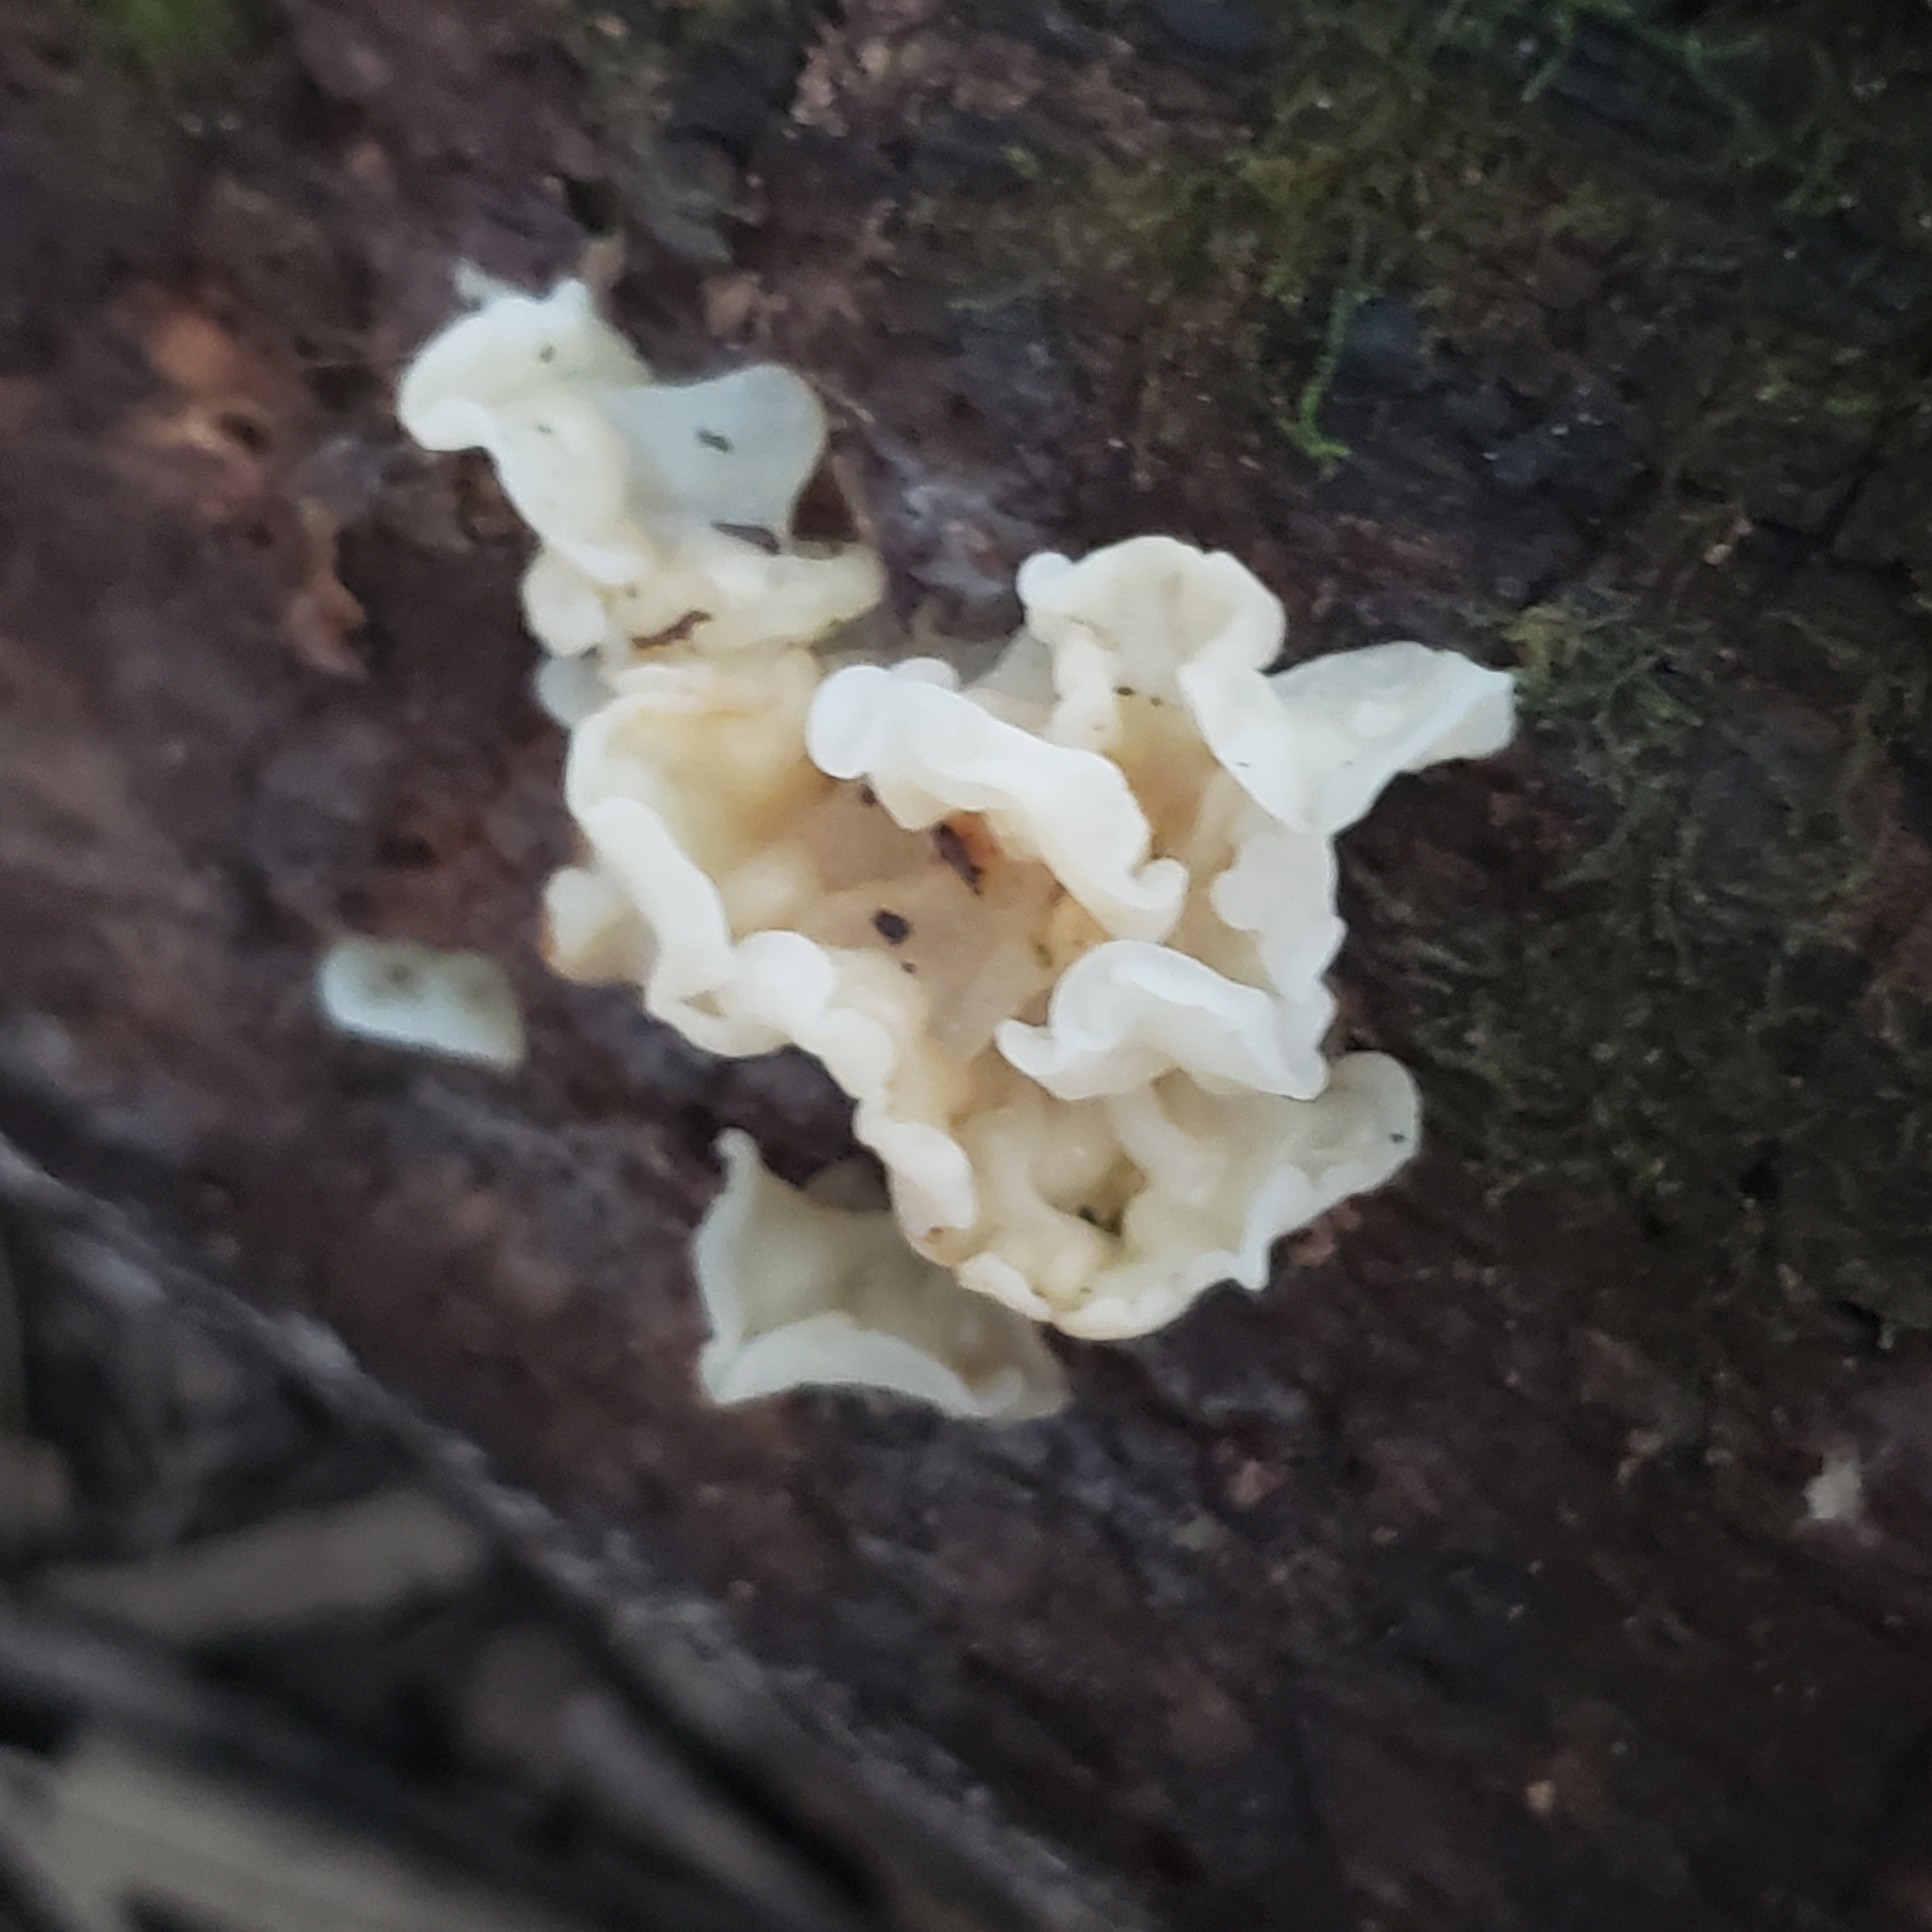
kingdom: Fungi
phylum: Basidiomycota
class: Agaricomycetes
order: Auriculariales
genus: Ductifera
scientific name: Ductifera pululahuana
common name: White jelly fungus
